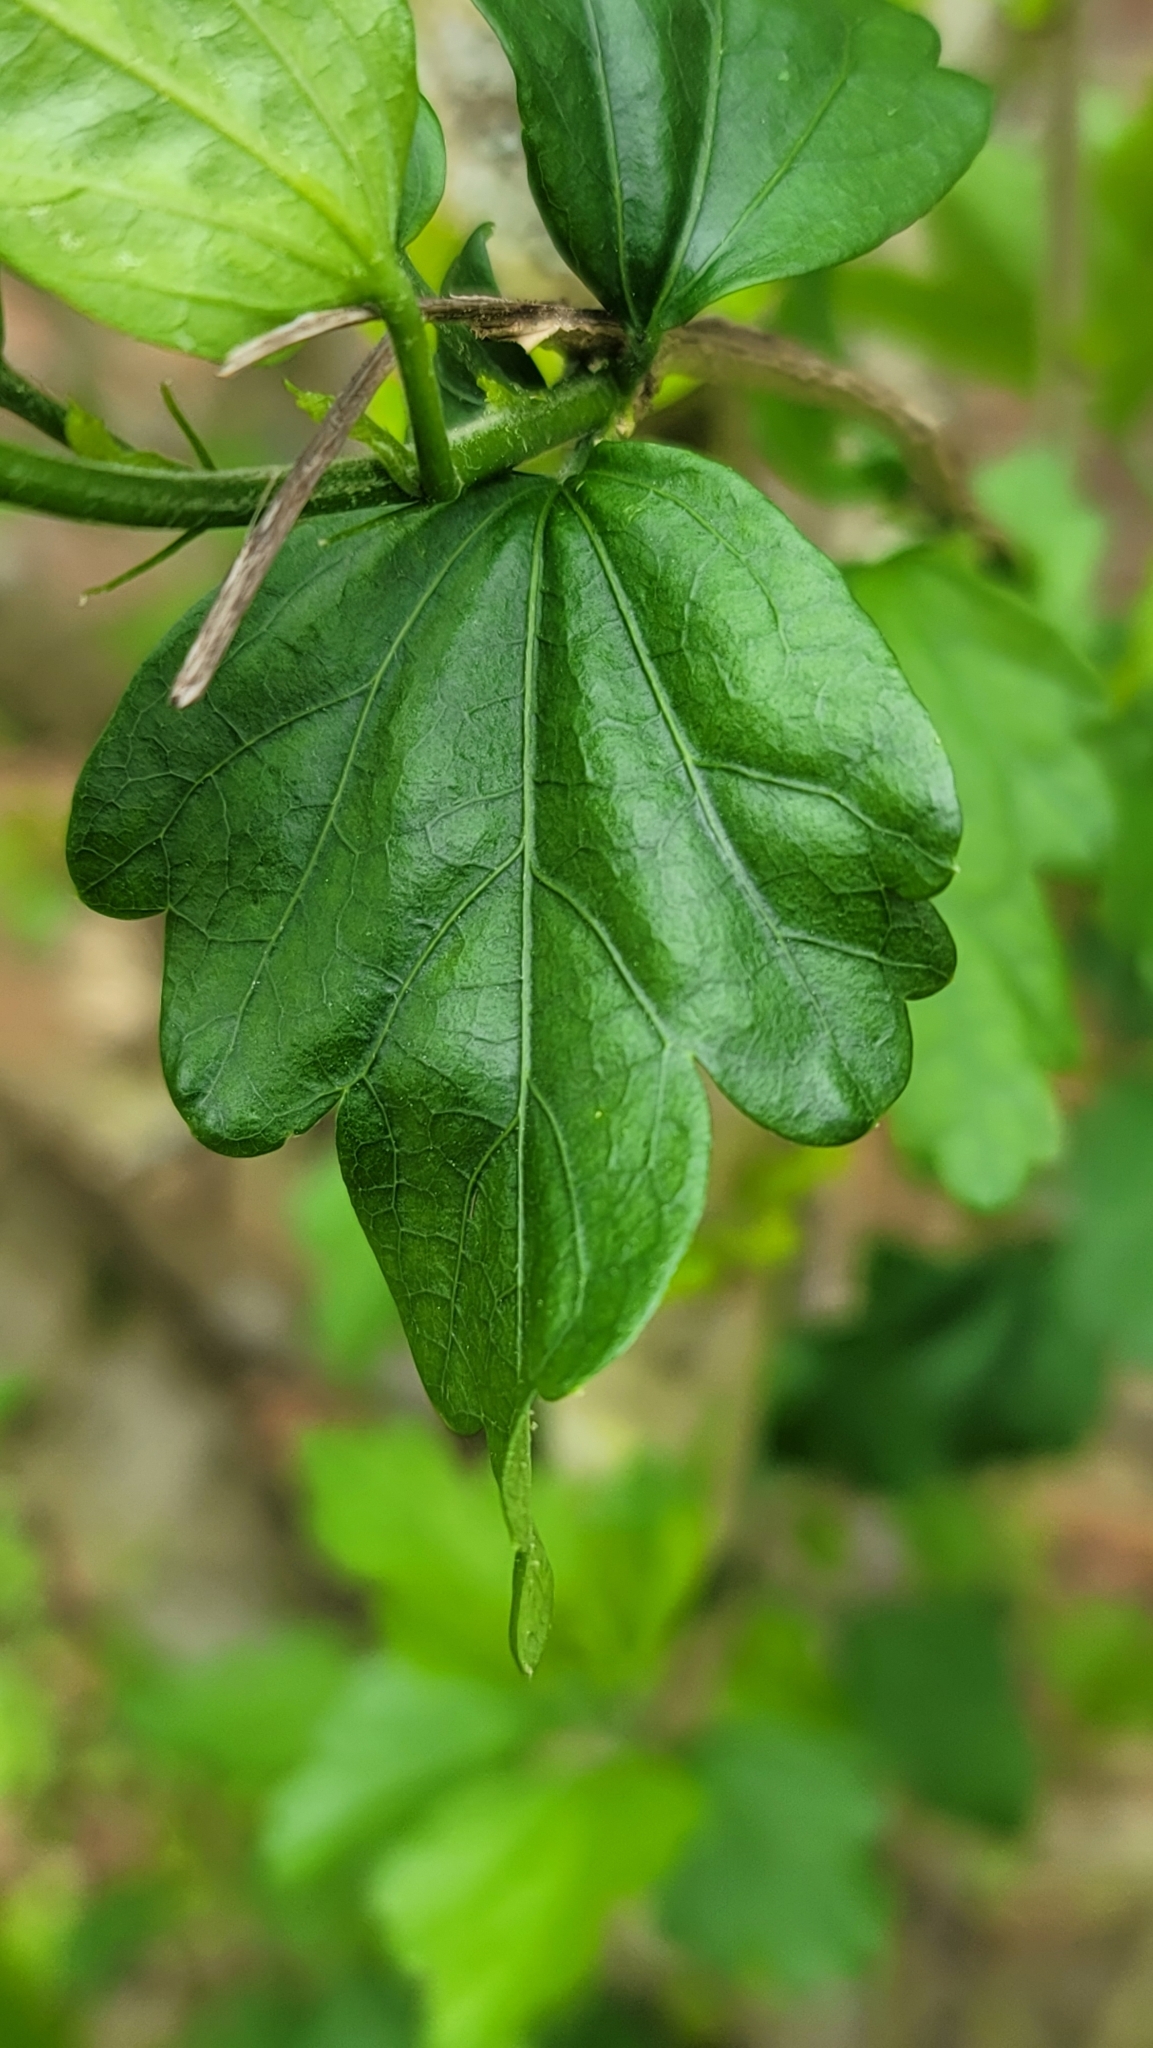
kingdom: Plantae
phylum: Tracheophyta
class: Magnoliopsida
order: Malvales
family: Malvaceae
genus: Hibiscus
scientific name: Hibiscus syriacus
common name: Syrian ketmia
